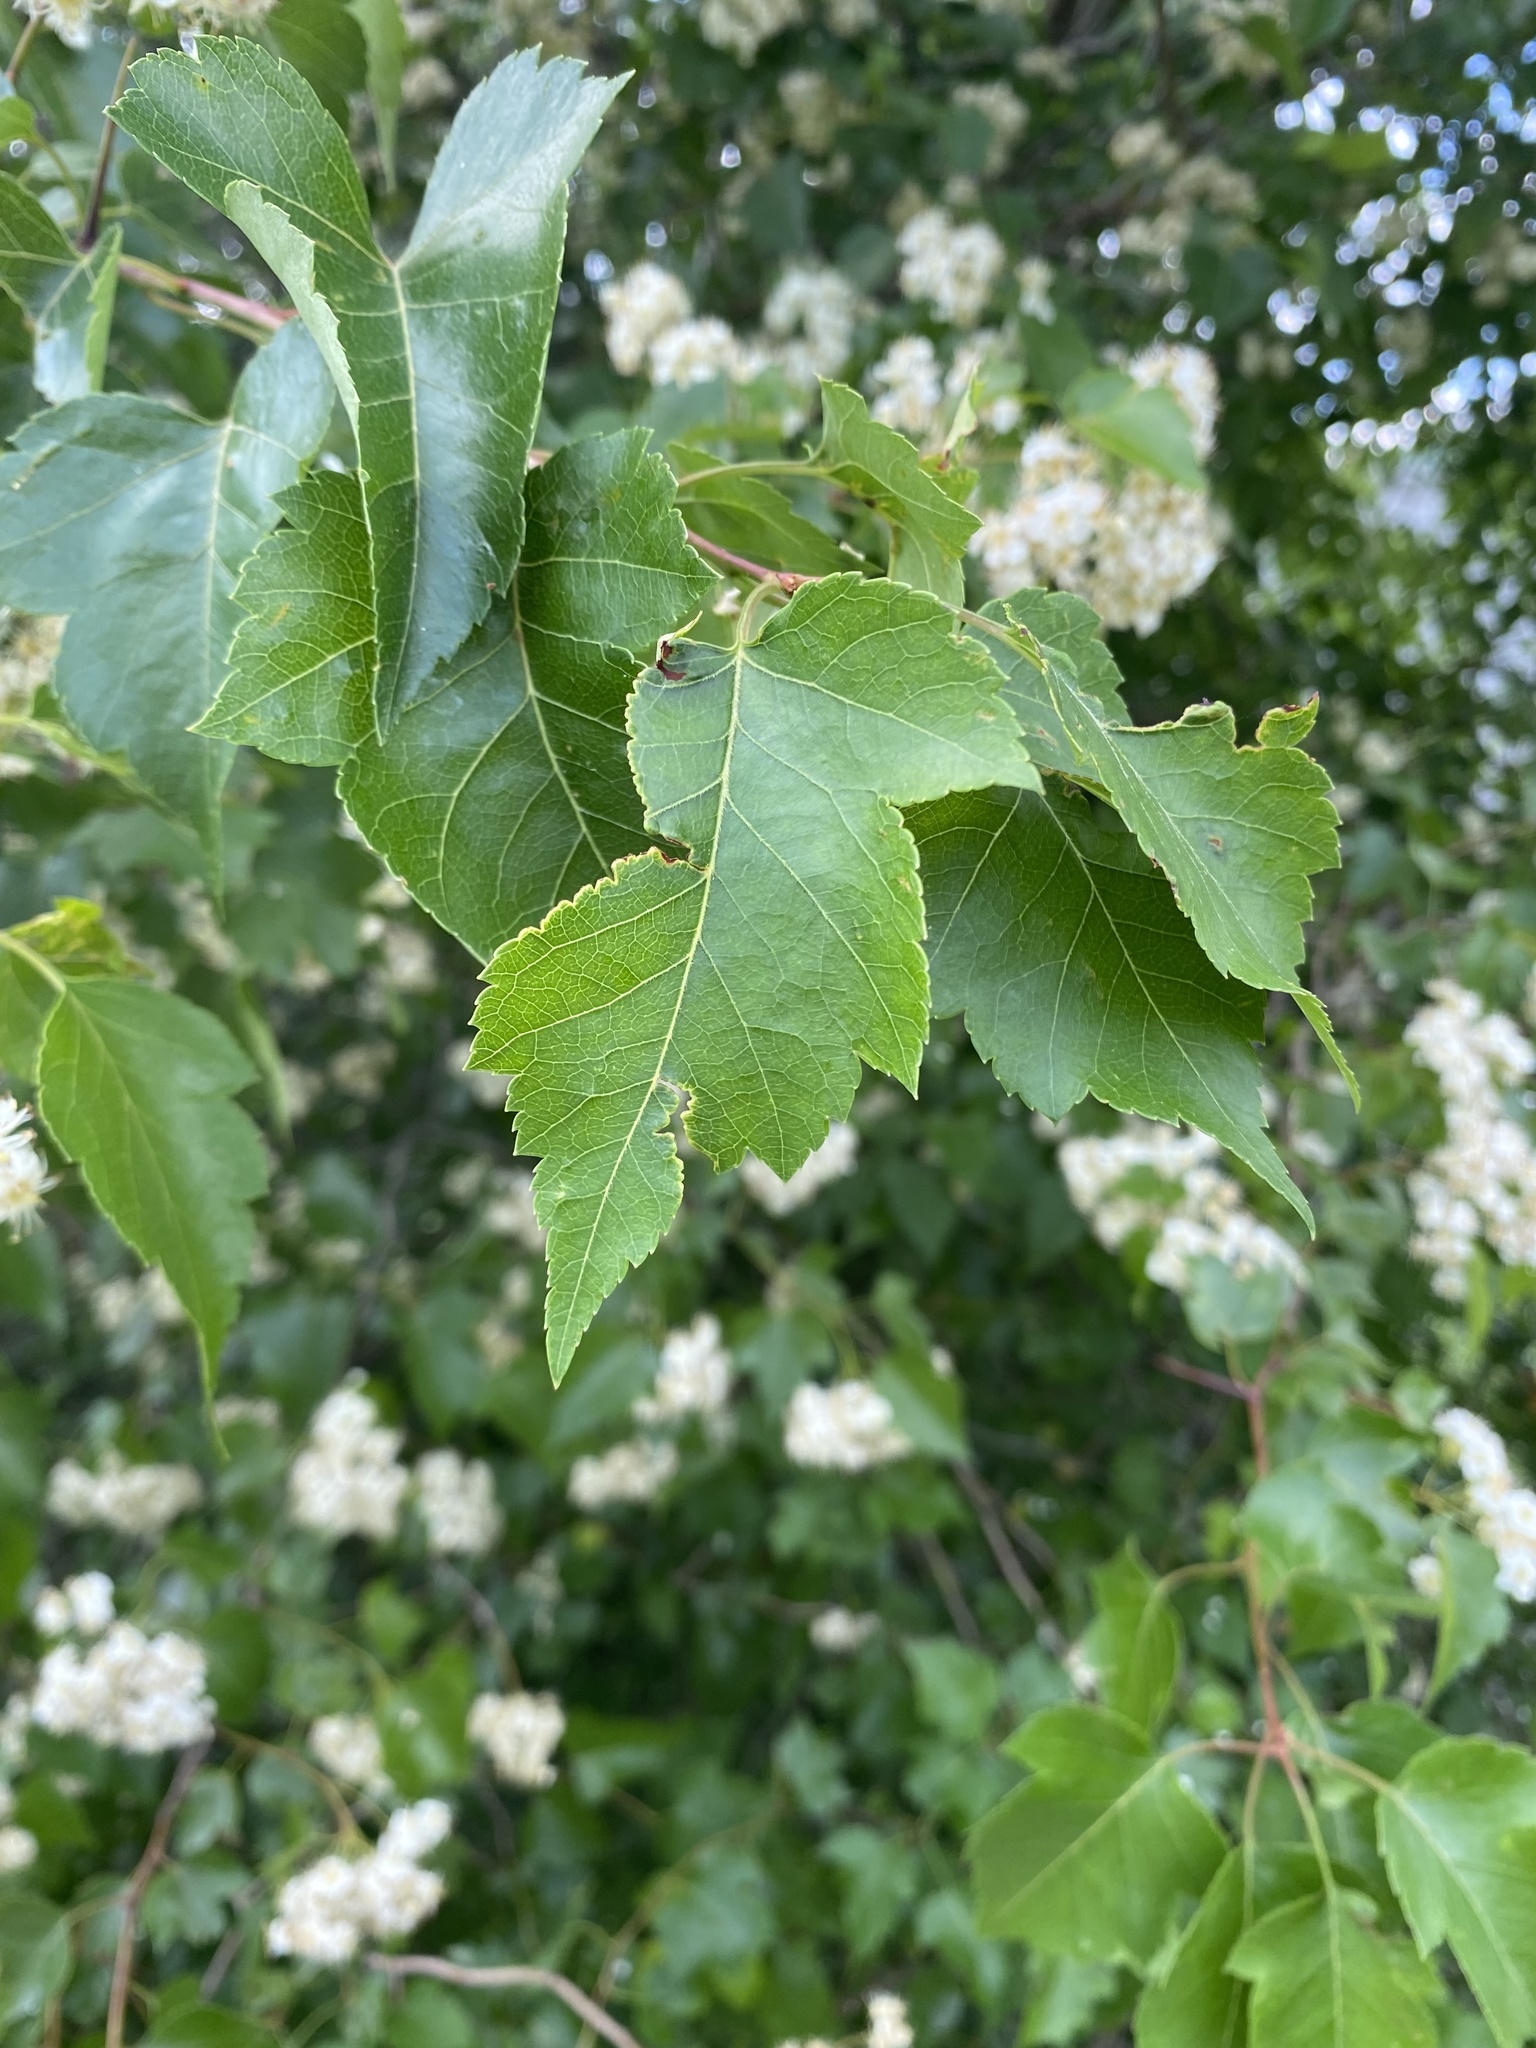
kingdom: Plantae
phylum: Tracheophyta
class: Magnoliopsida
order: Rosales
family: Rosaceae
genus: Physocarpus
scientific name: Physocarpus opulifolius
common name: Ninebark
